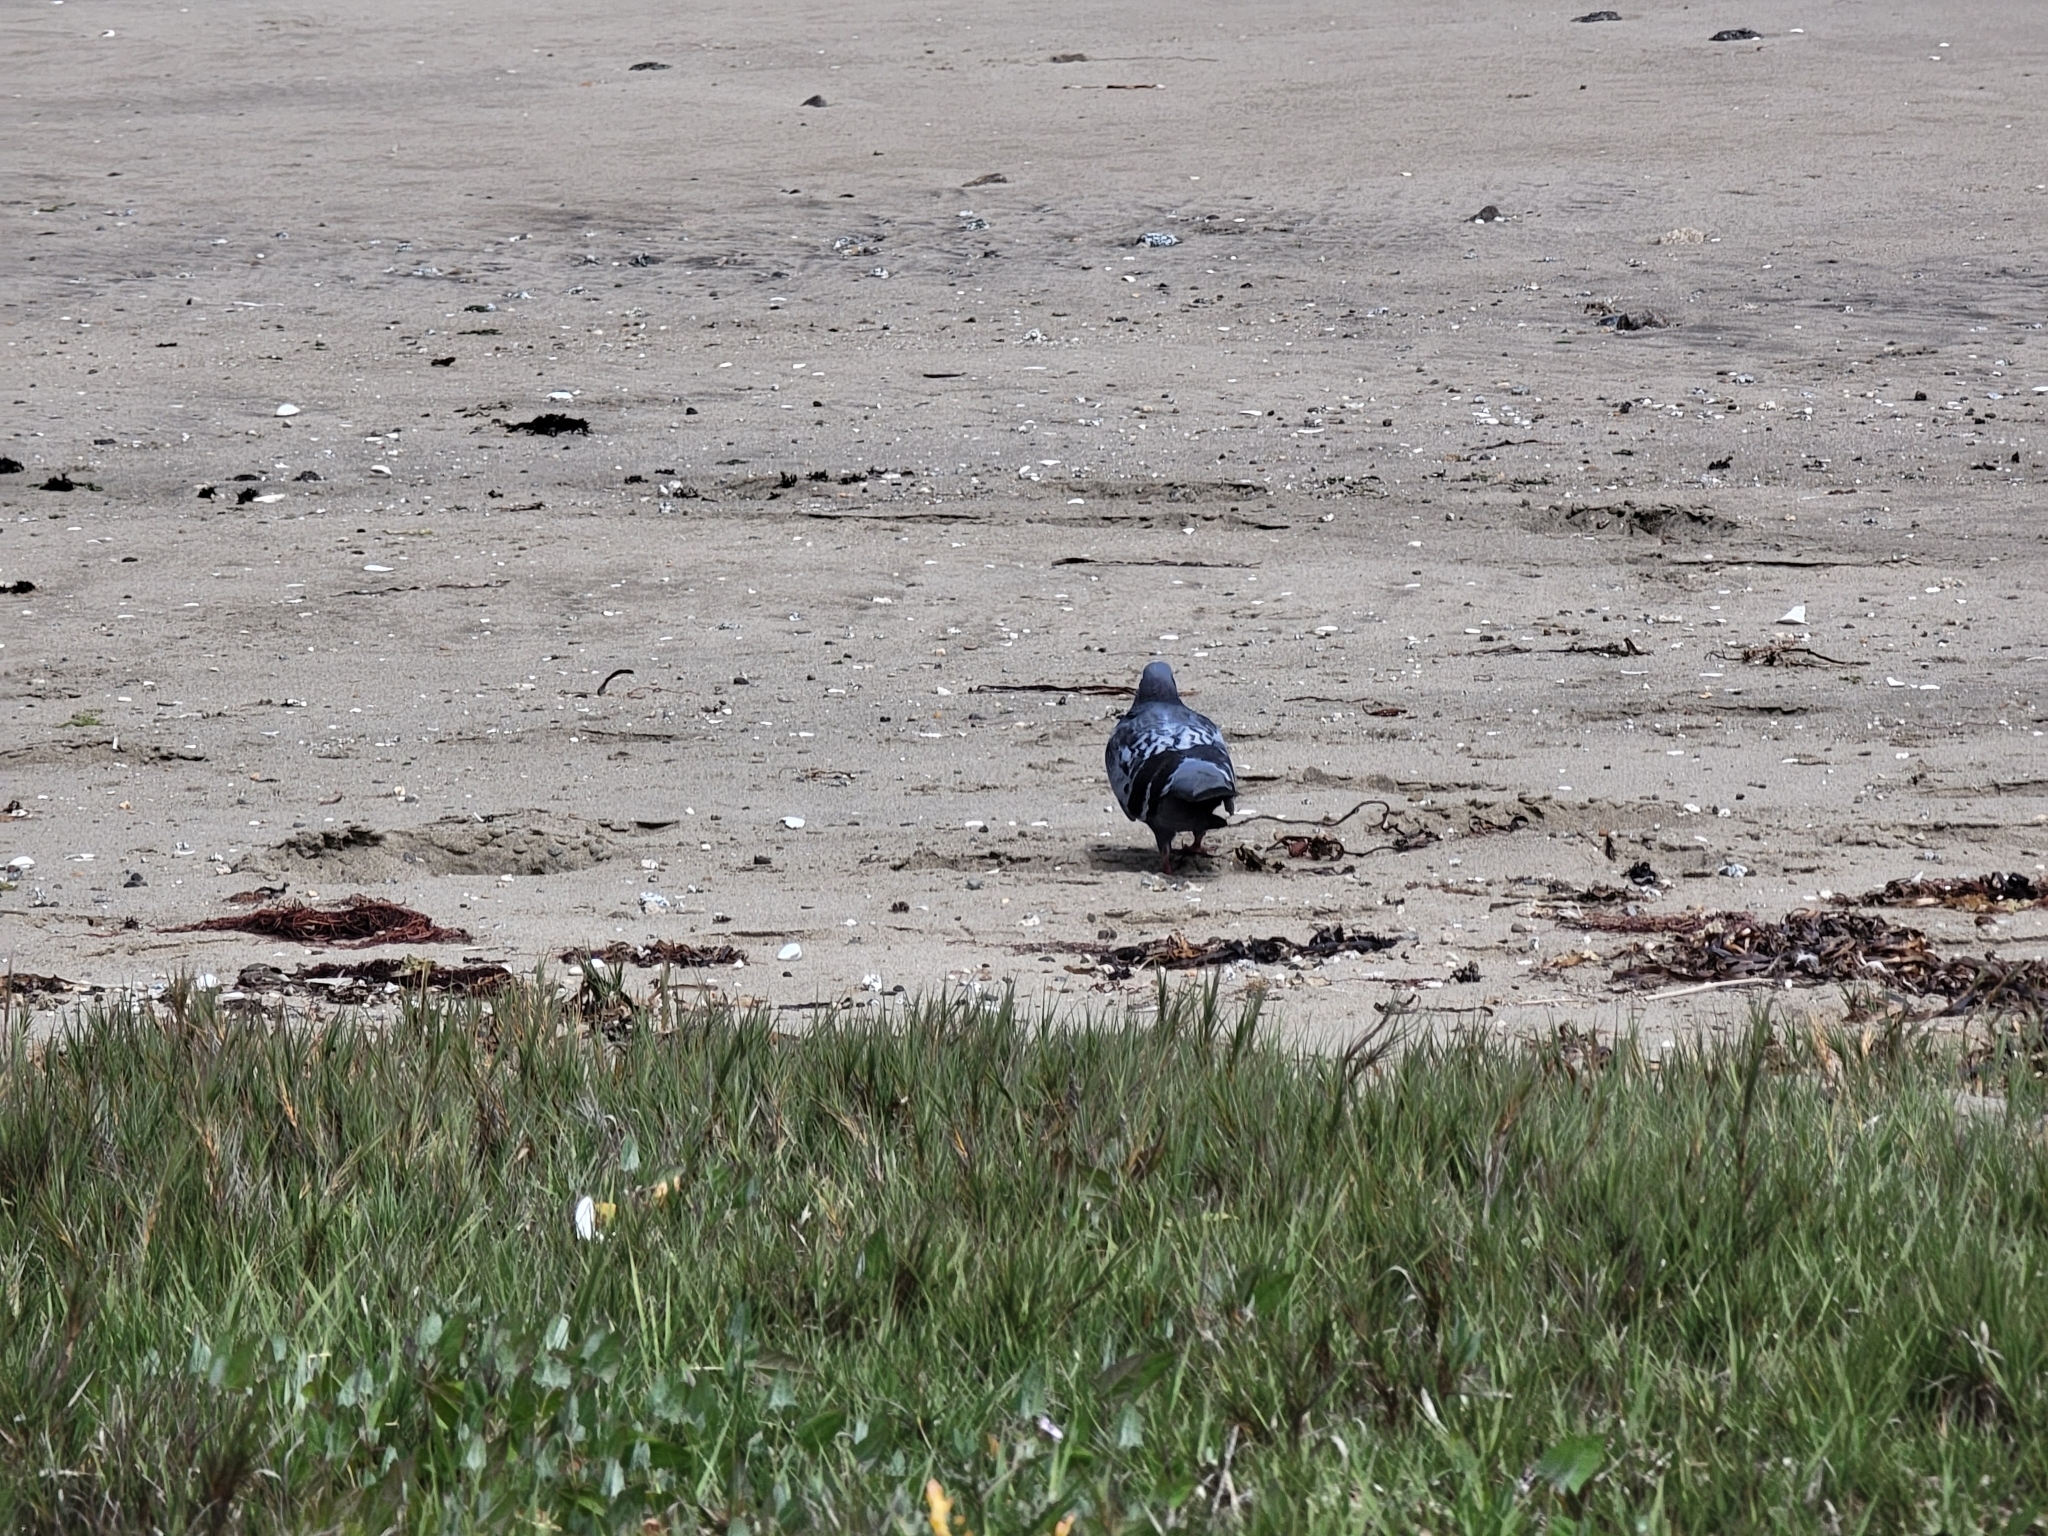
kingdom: Animalia
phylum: Chordata
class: Aves
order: Columbiformes
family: Columbidae
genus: Columba
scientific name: Columba livia
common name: Rock pigeon
